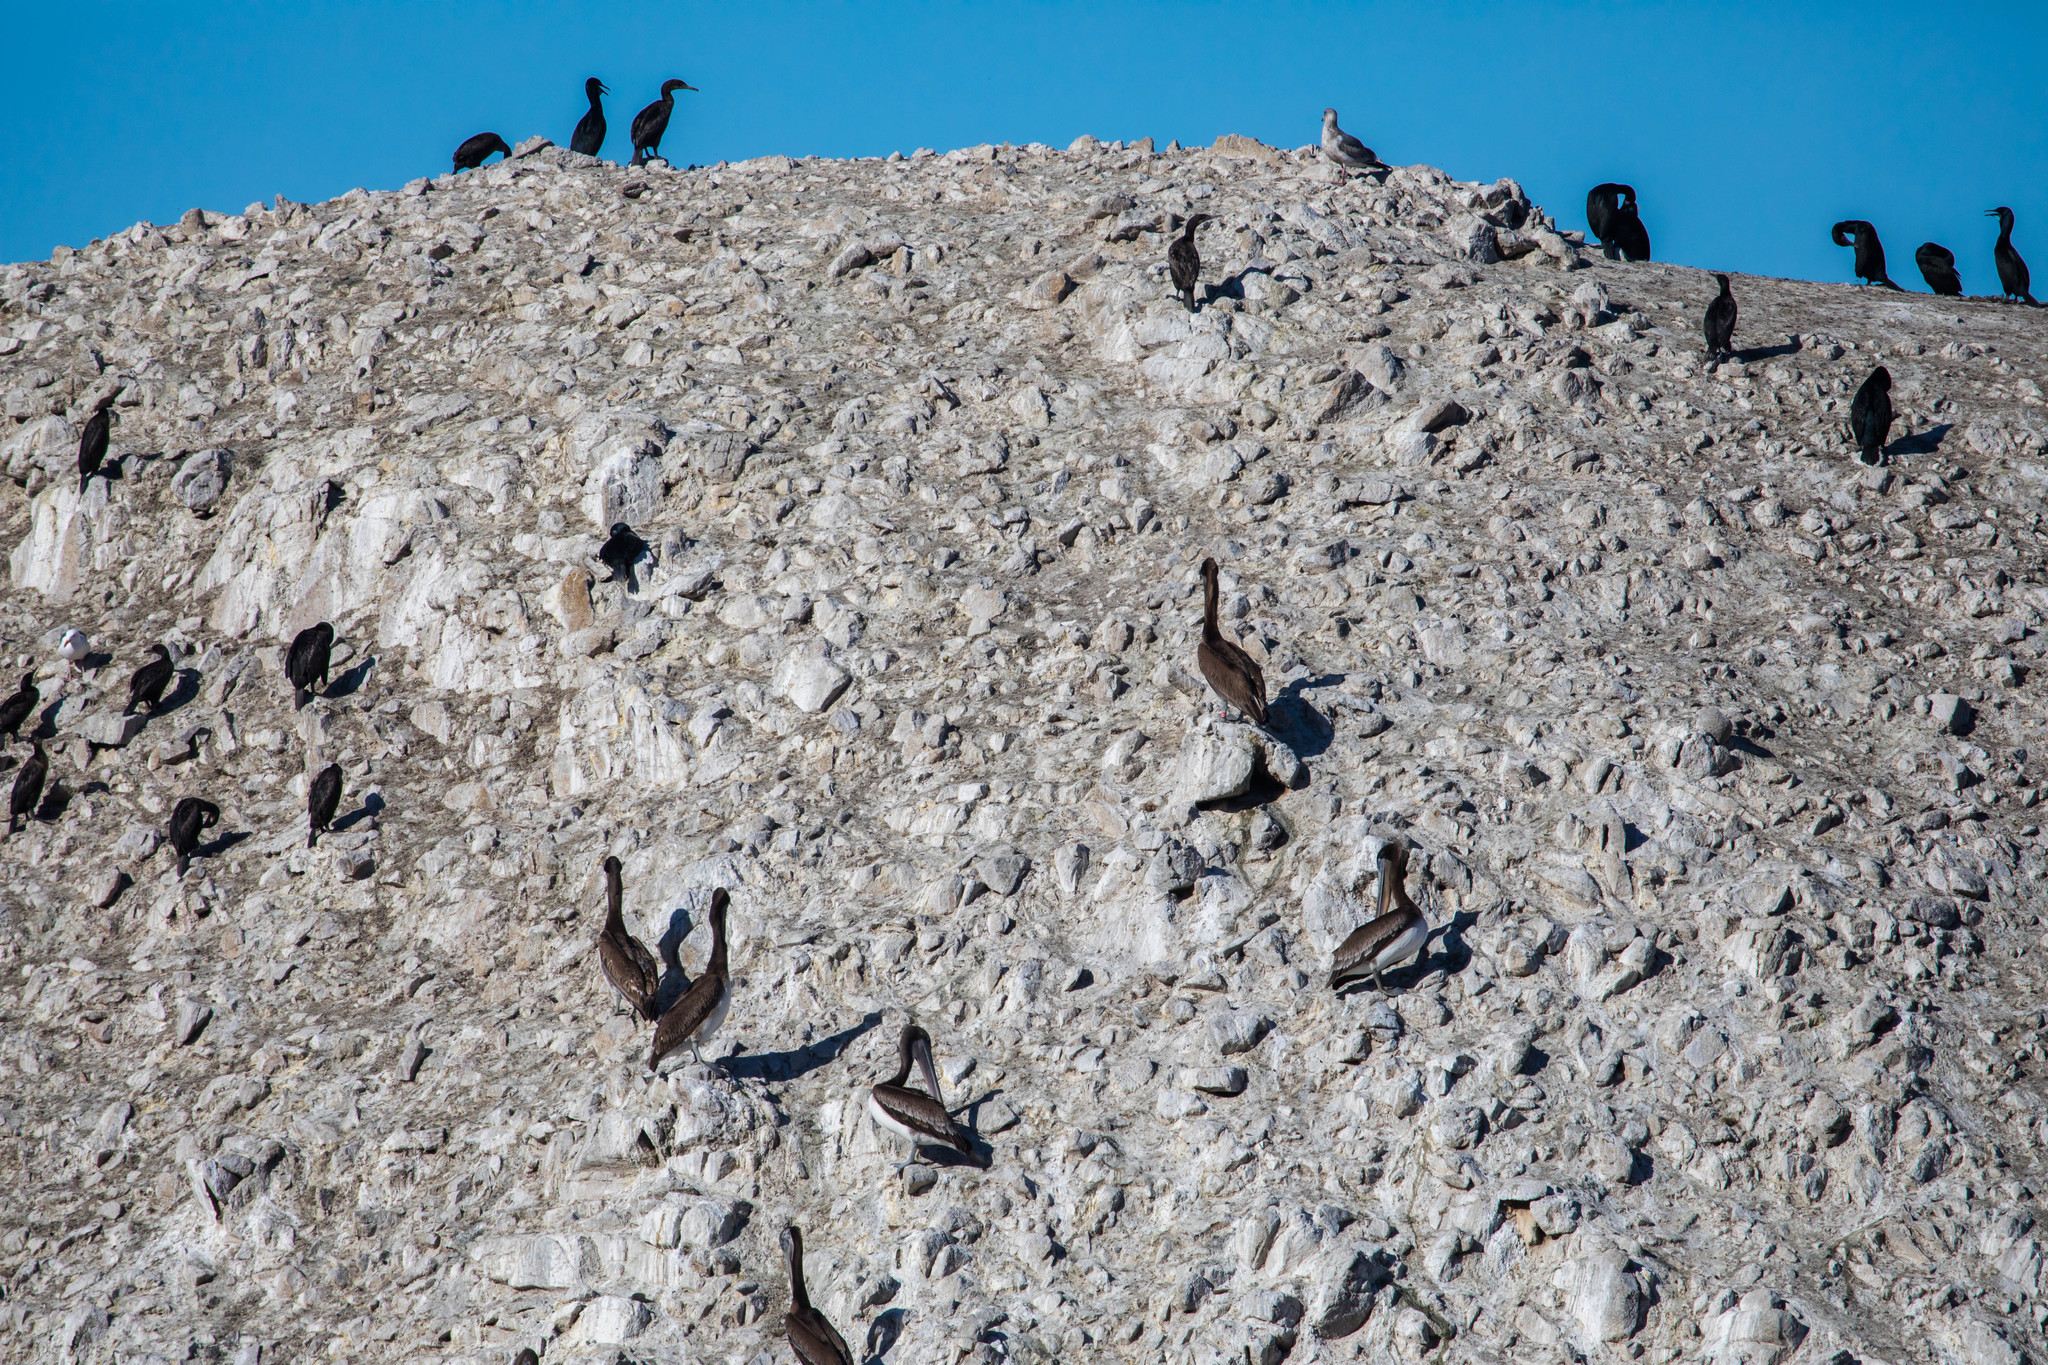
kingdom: Animalia
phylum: Chordata
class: Aves
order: Pelecaniformes
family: Pelecanidae
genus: Pelecanus
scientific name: Pelecanus occidentalis
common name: Brown pelican
